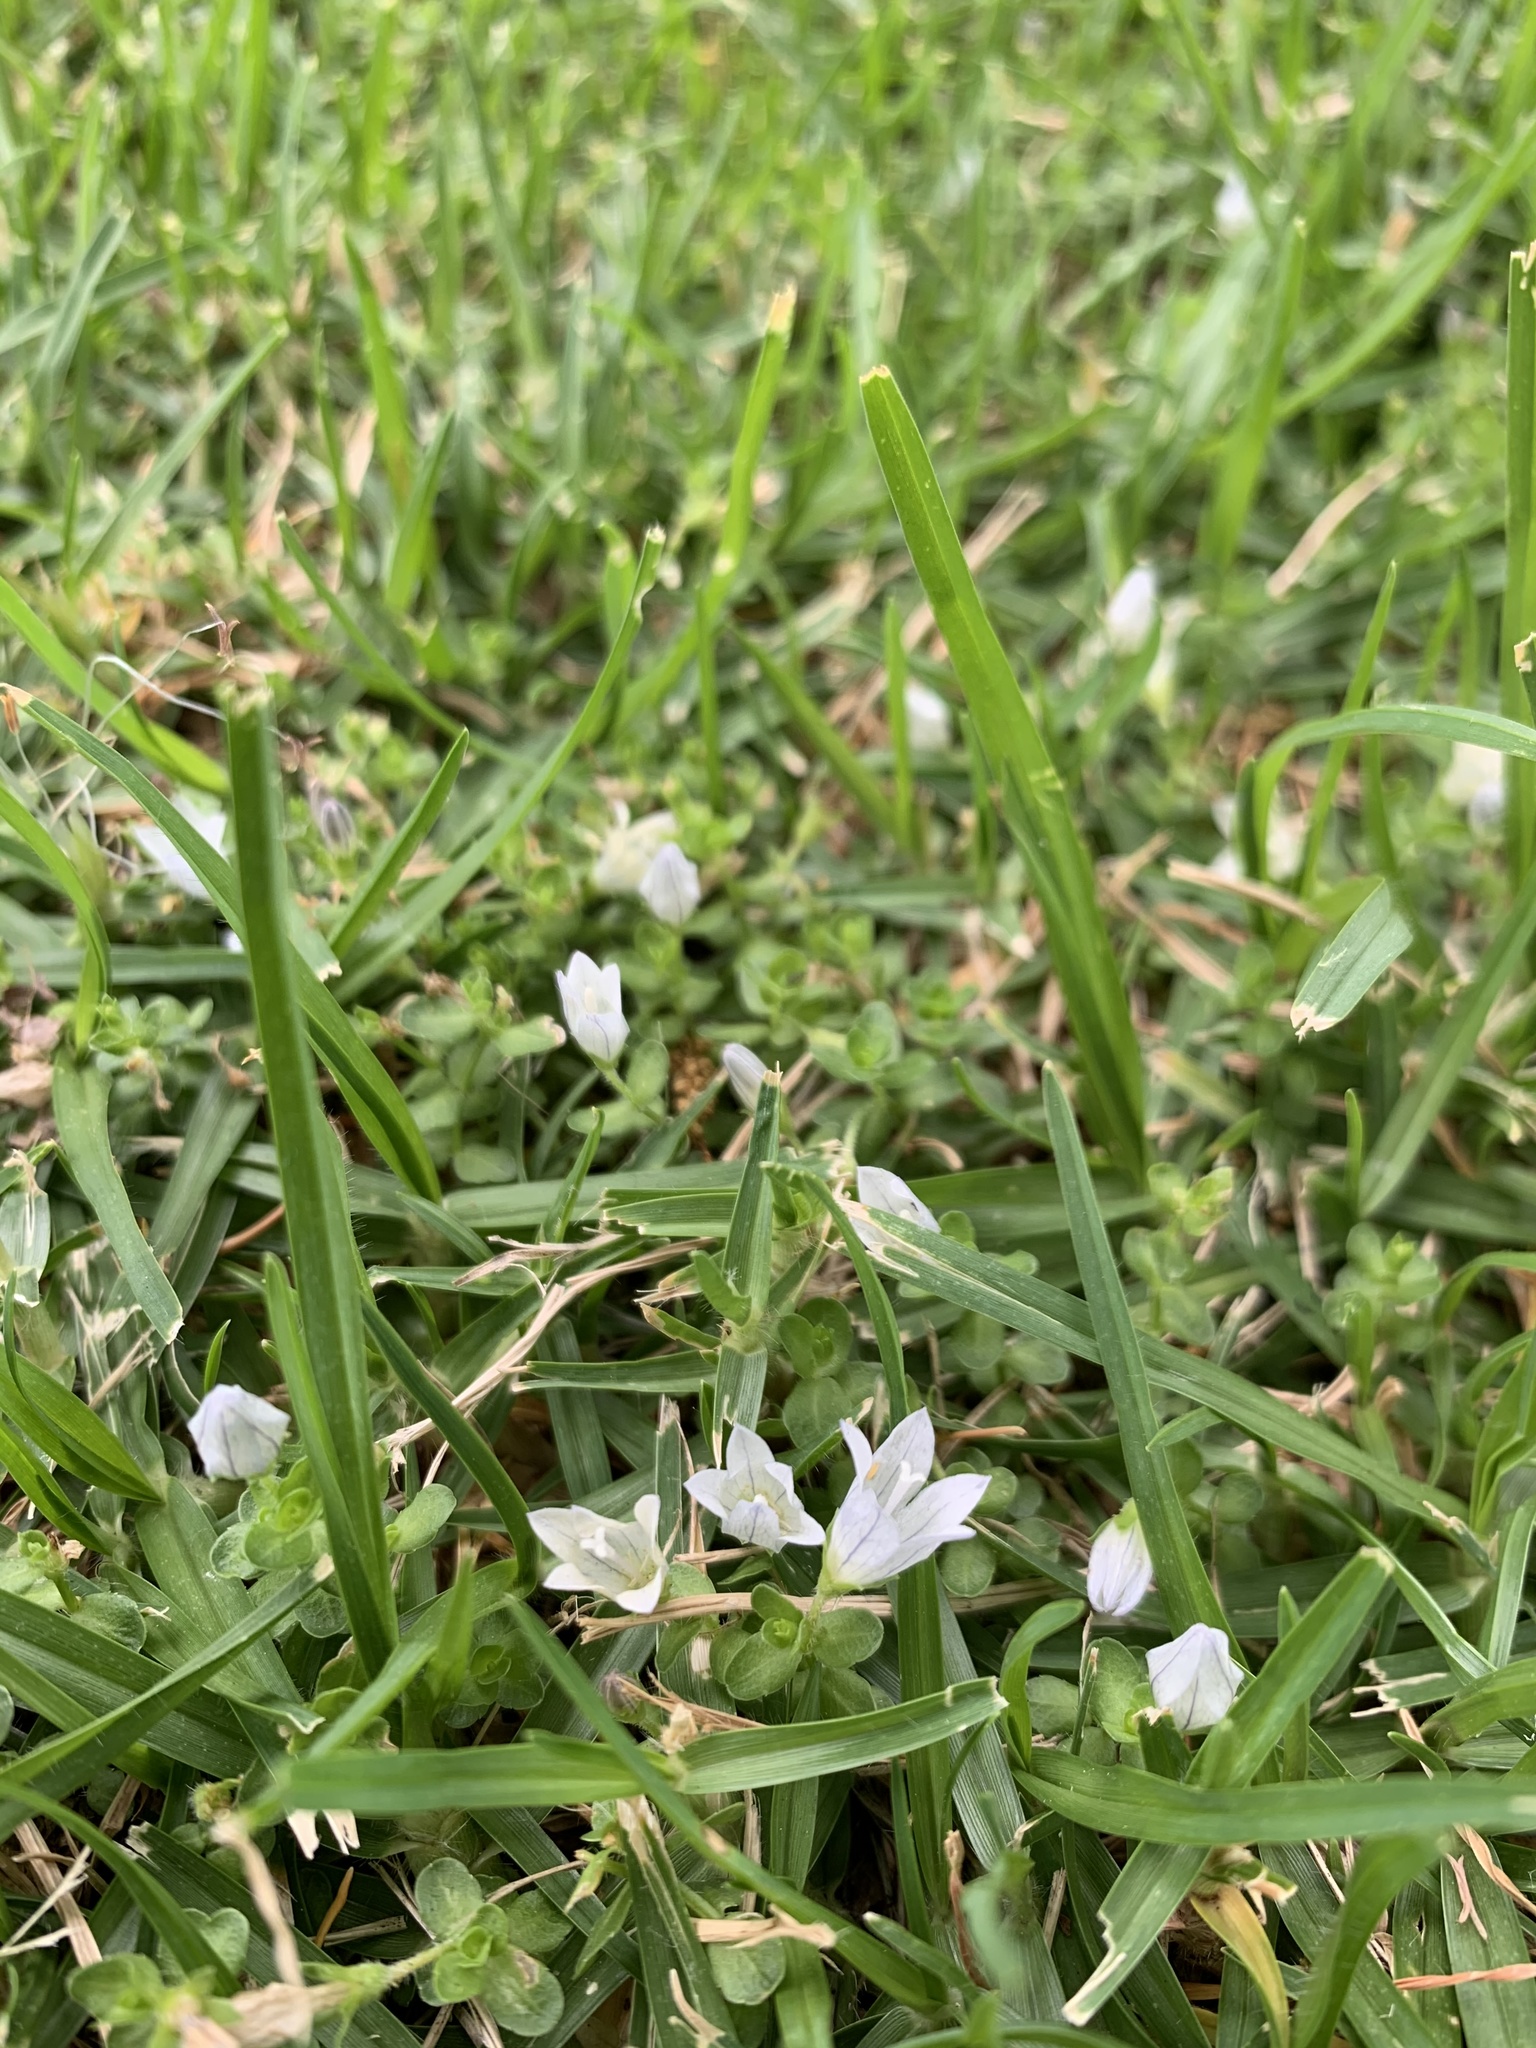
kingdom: Plantae
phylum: Tracheophyta
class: Magnoliopsida
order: Asterales
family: Campanulaceae
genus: Wahlenbergia
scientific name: Wahlenbergia procumbens
